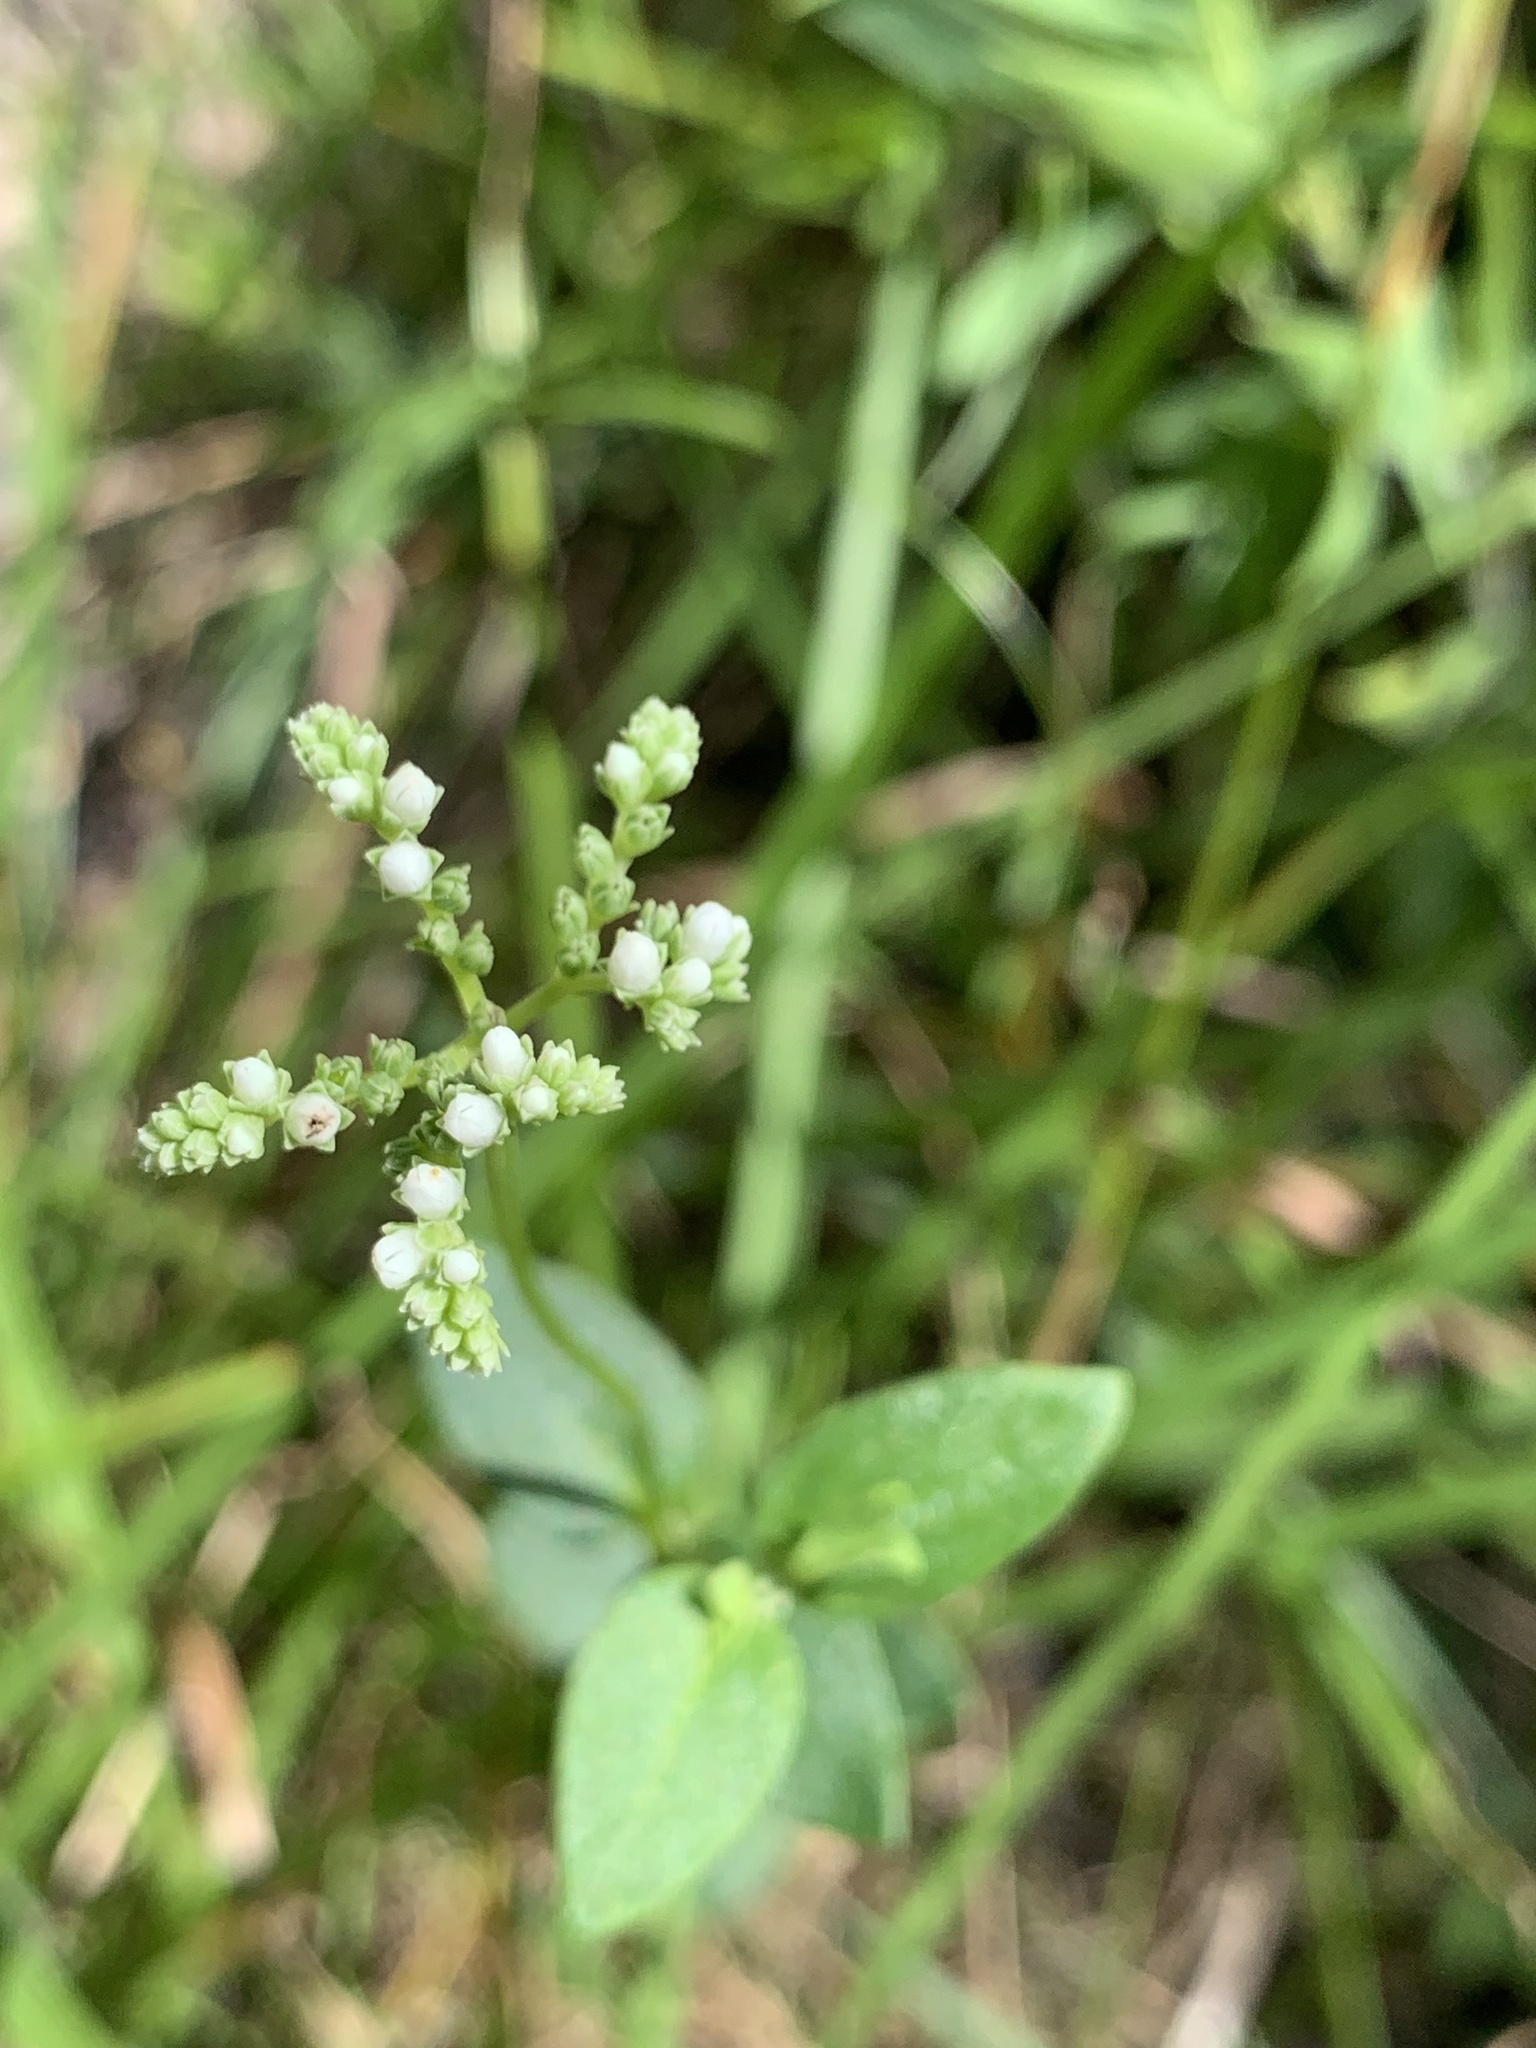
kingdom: Plantae
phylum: Tracheophyta
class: Magnoliopsida
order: Gentianales
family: Loganiaceae
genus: Mitreola
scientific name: Mitreola sessilifolia
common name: Swamp hornpod
